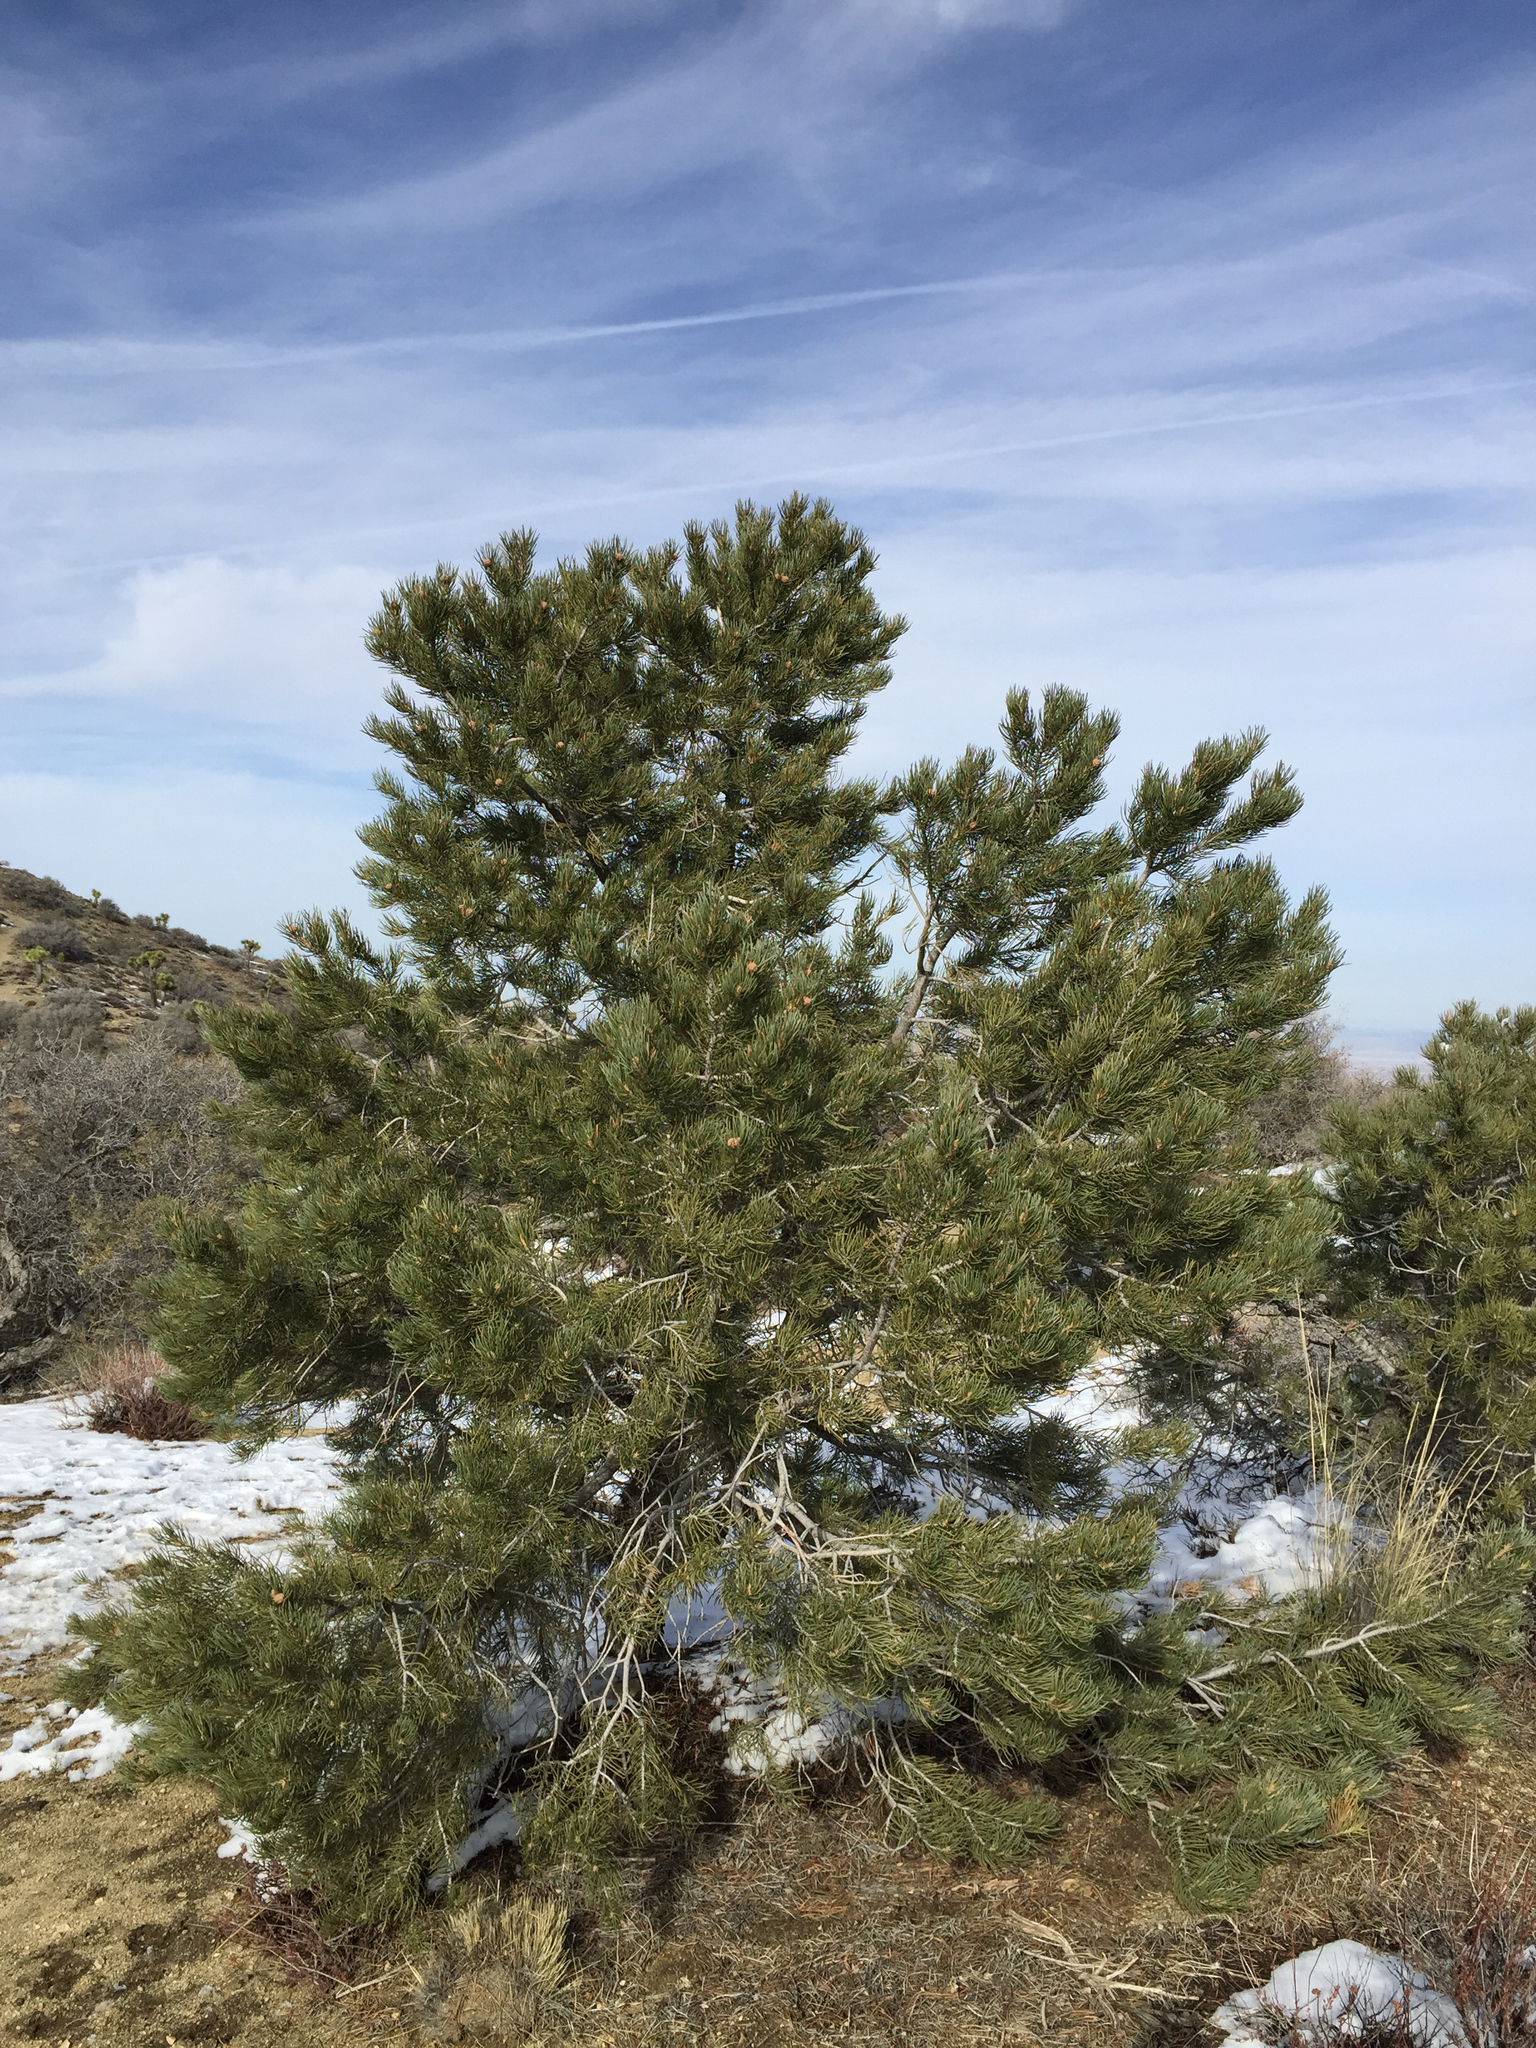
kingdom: Plantae
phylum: Tracheophyta
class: Pinopsida
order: Pinales
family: Pinaceae
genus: Pinus
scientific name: Pinus monophylla
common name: One-leaved nut pine
